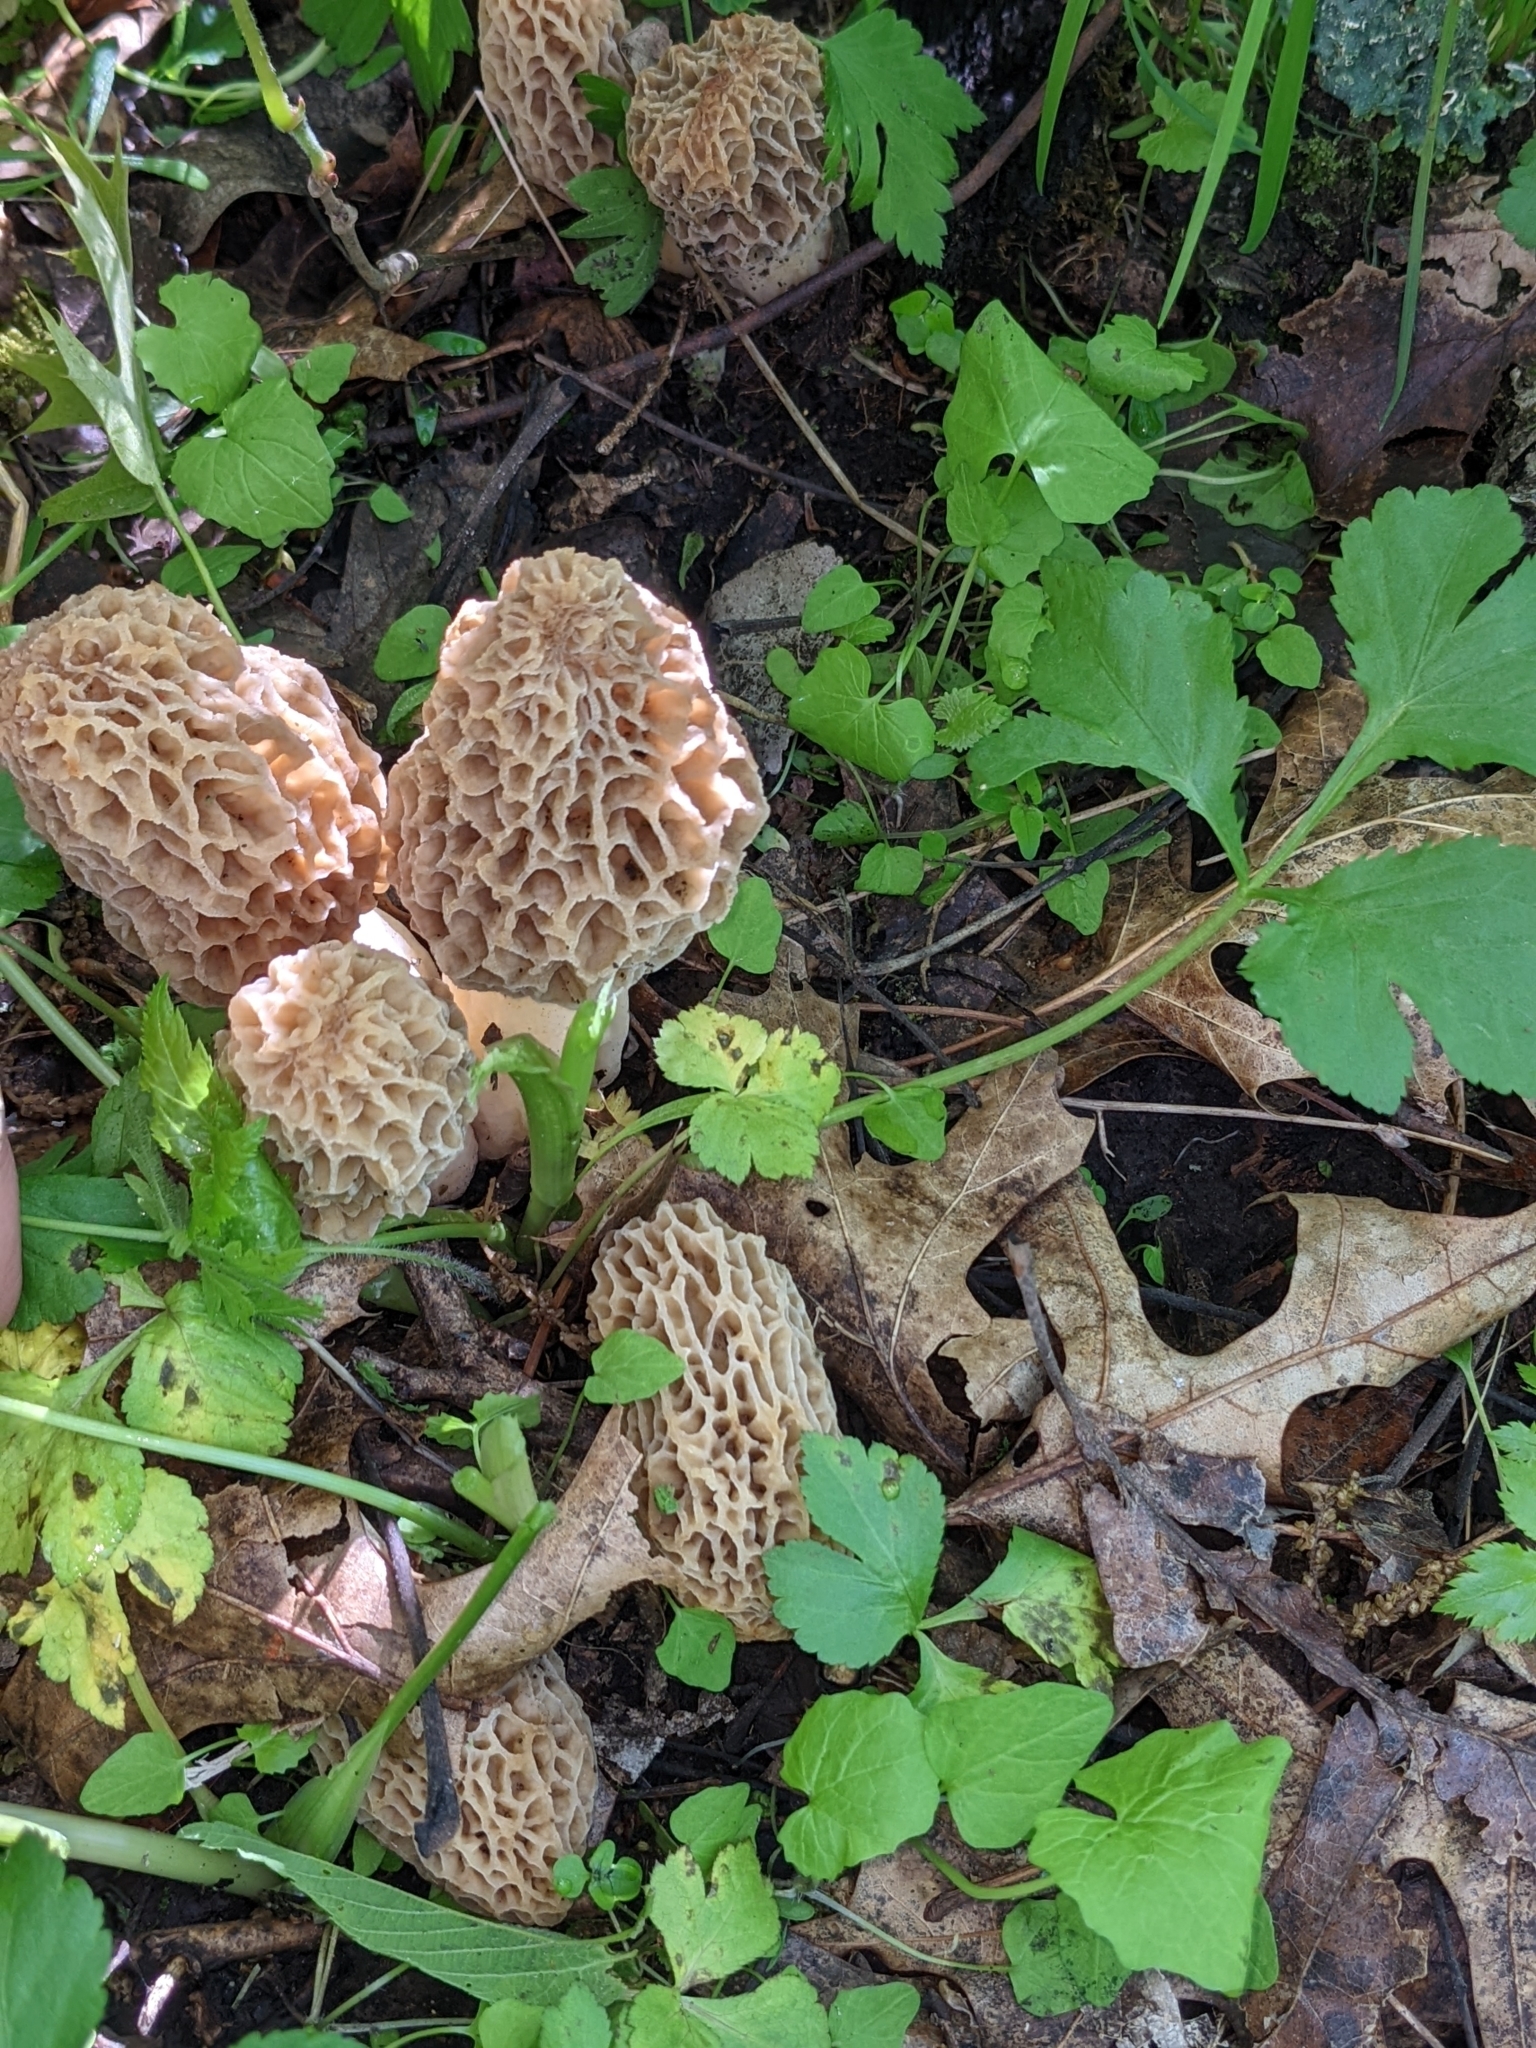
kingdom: Fungi
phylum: Ascomycota
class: Pezizomycetes
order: Pezizales
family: Morchellaceae
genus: Morchella
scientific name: Morchella americana
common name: White morel
